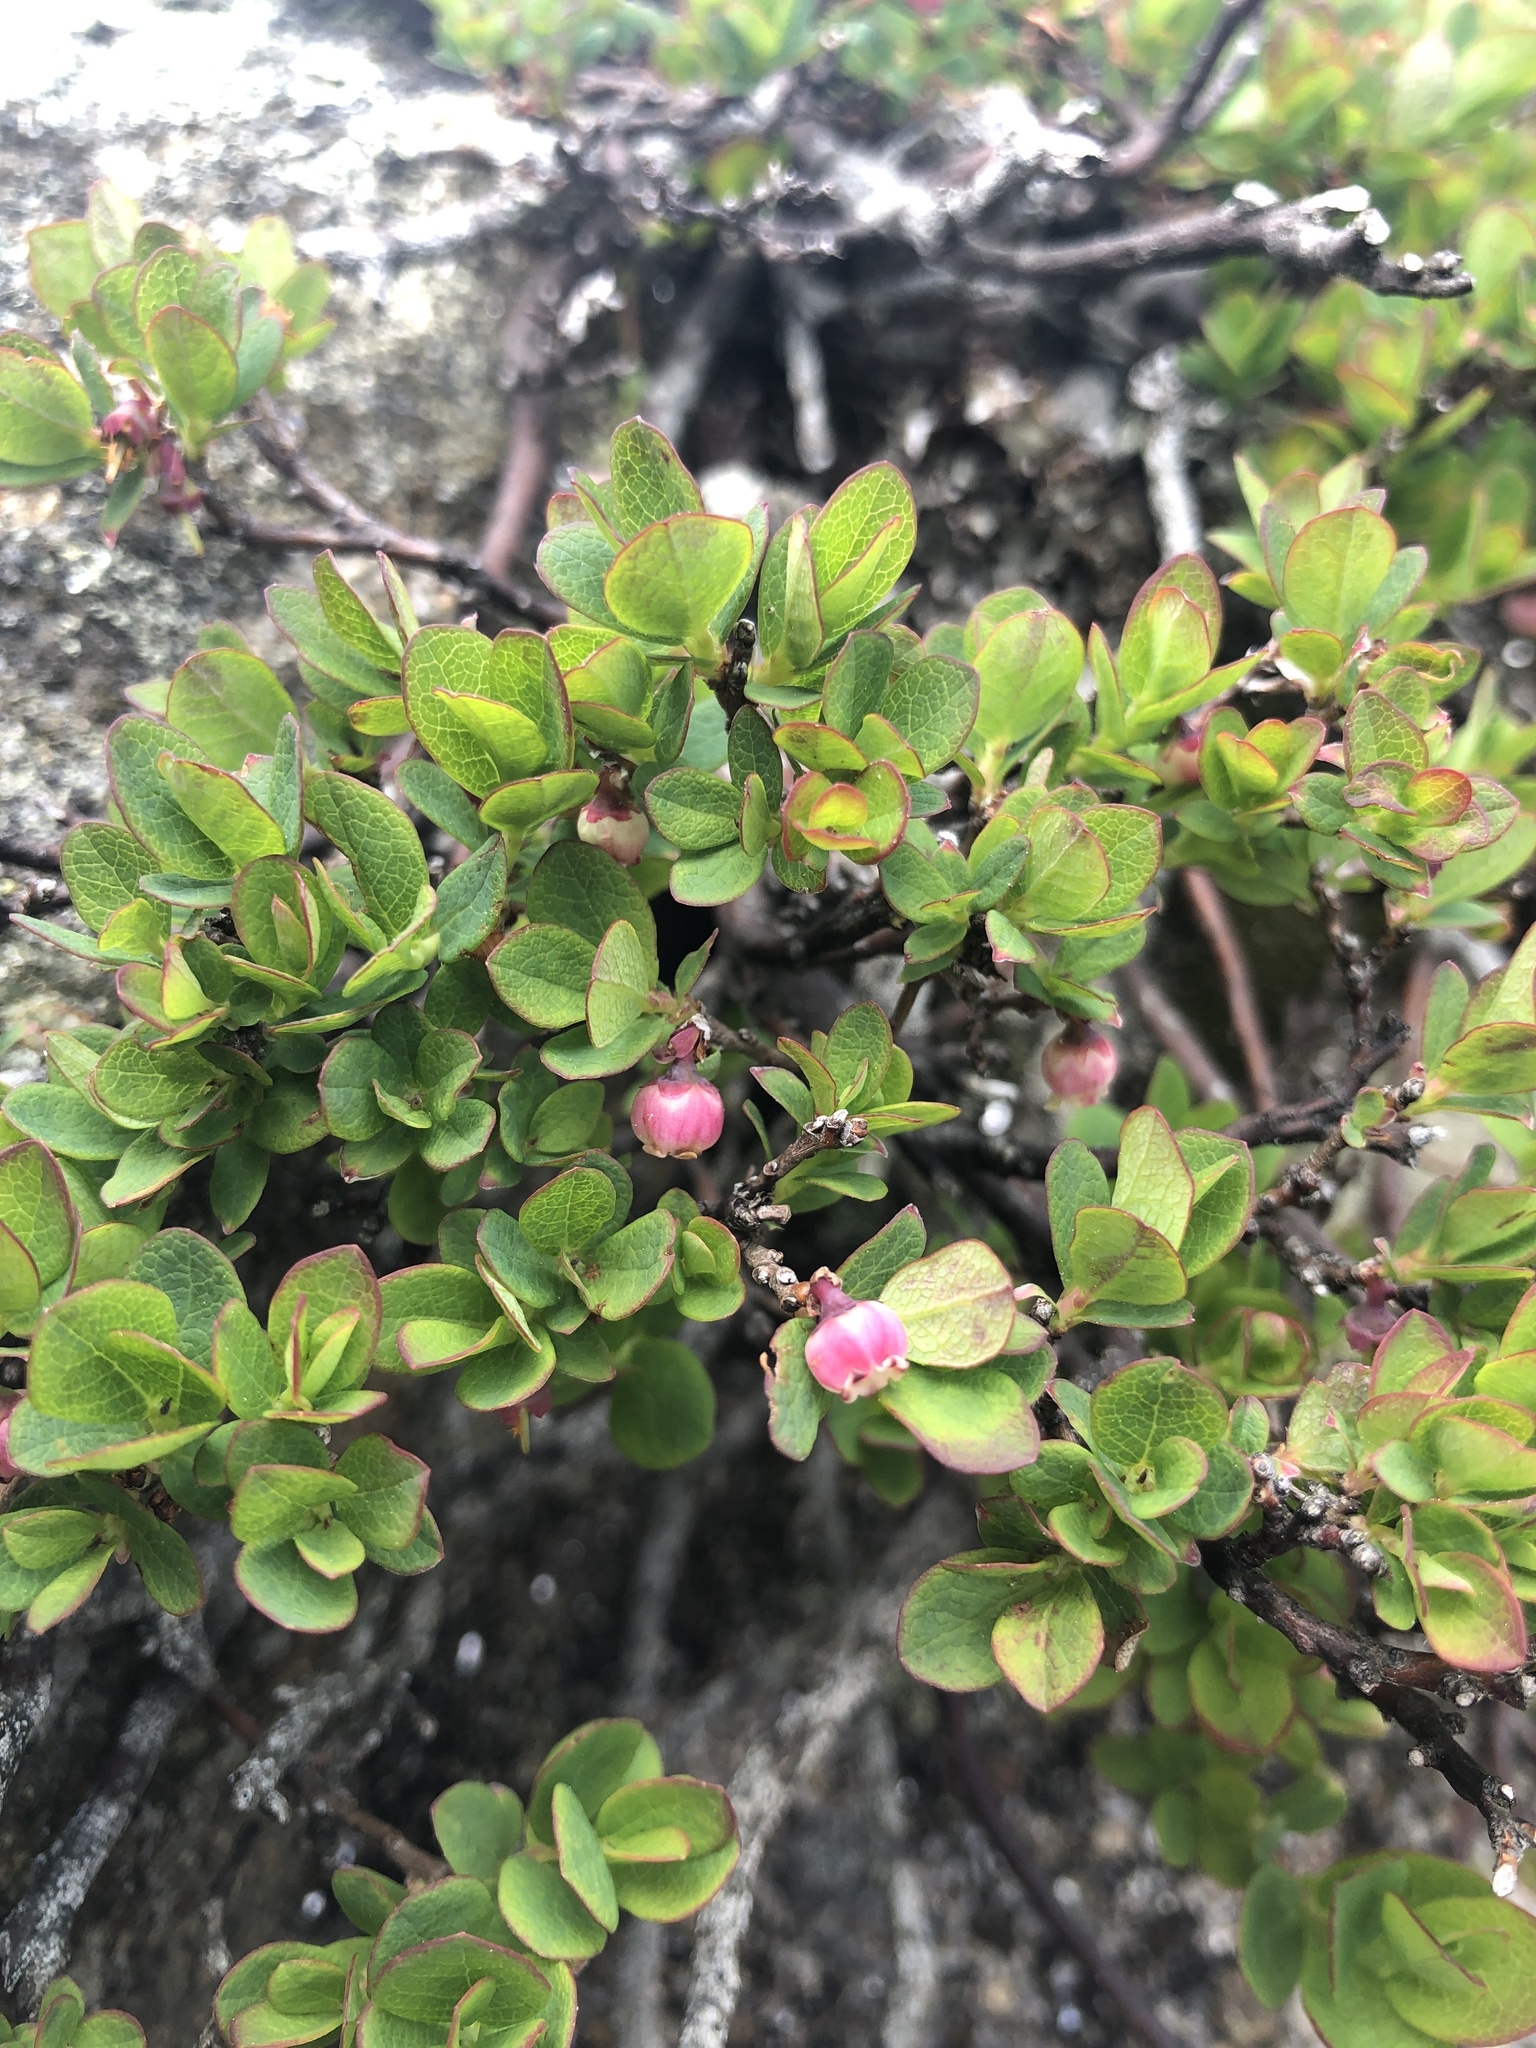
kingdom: Plantae
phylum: Tracheophyta
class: Magnoliopsida
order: Ericales
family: Ericaceae
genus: Vaccinium
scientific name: Vaccinium uliginosum
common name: Bog bilberry
